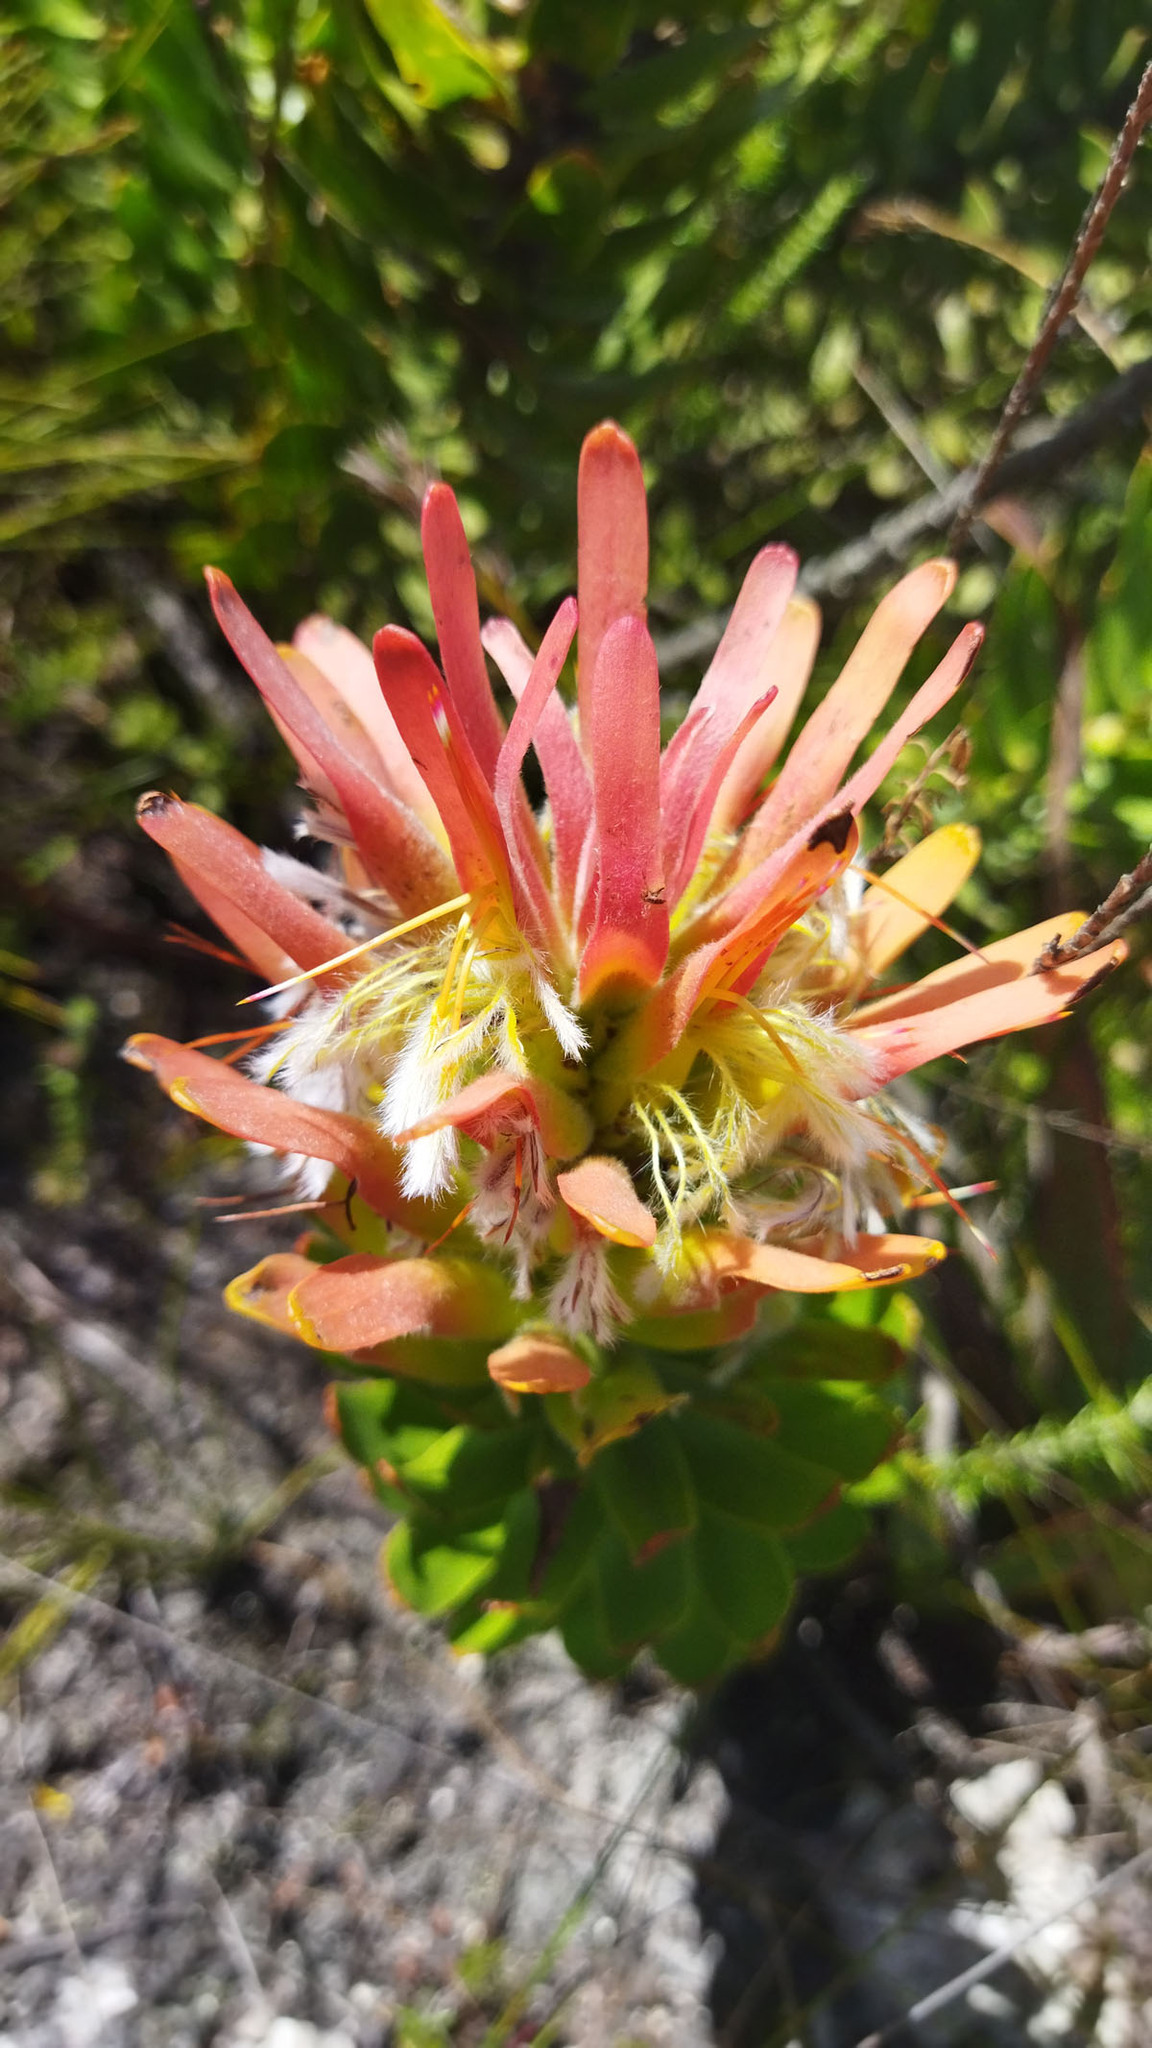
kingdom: Plantae
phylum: Tracheophyta
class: Magnoliopsida
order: Proteales
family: Proteaceae
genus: Mimetes
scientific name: Mimetes cucullatus
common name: Common pagoda
